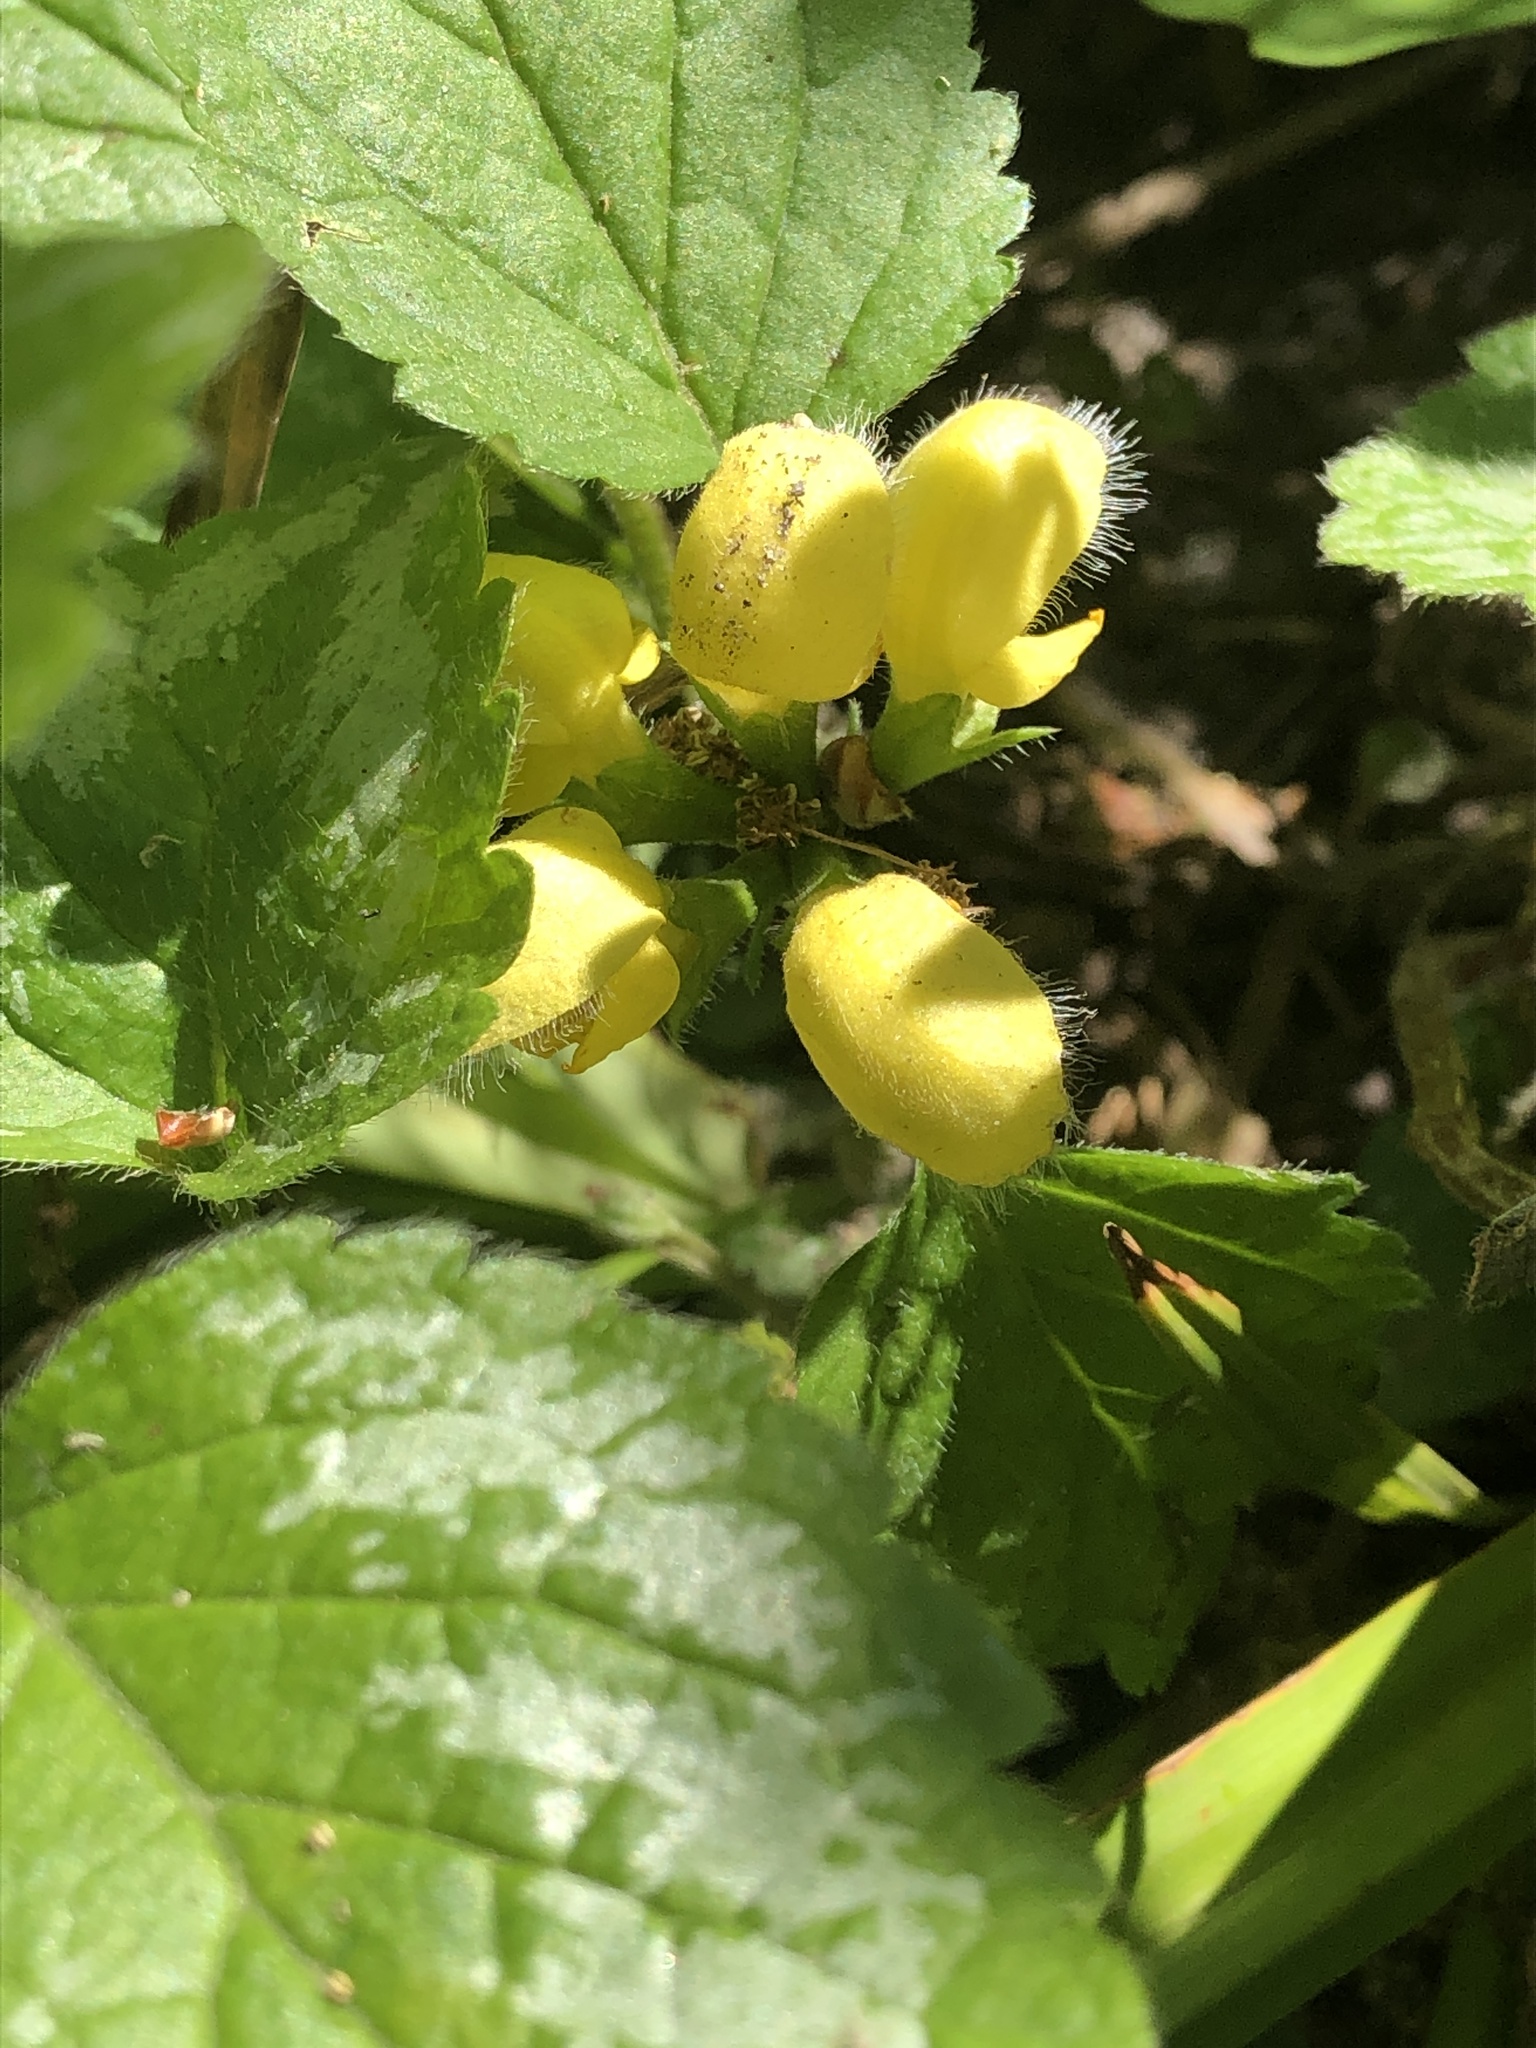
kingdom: Plantae
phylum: Tracheophyta
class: Magnoliopsida
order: Lamiales
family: Lamiaceae
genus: Lamium
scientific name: Lamium galeobdolon
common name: Yellow archangel
